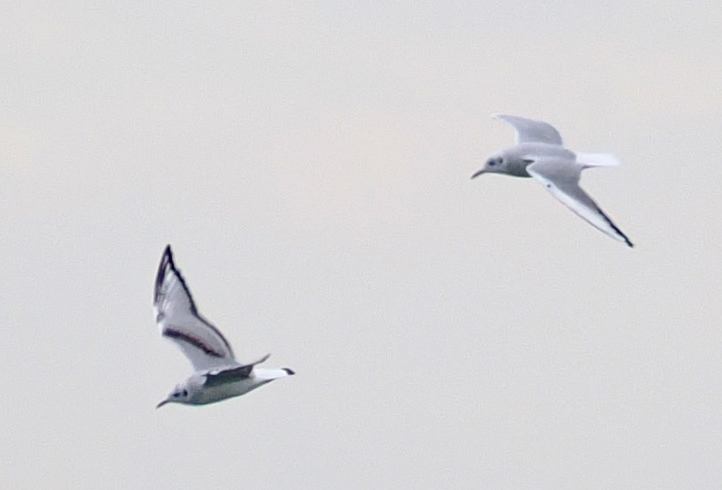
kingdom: Animalia
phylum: Chordata
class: Aves
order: Charadriiformes
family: Laridae
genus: Chroicocephalus
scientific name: Chroicocephalus philadelphia
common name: Bonaparte's gull
